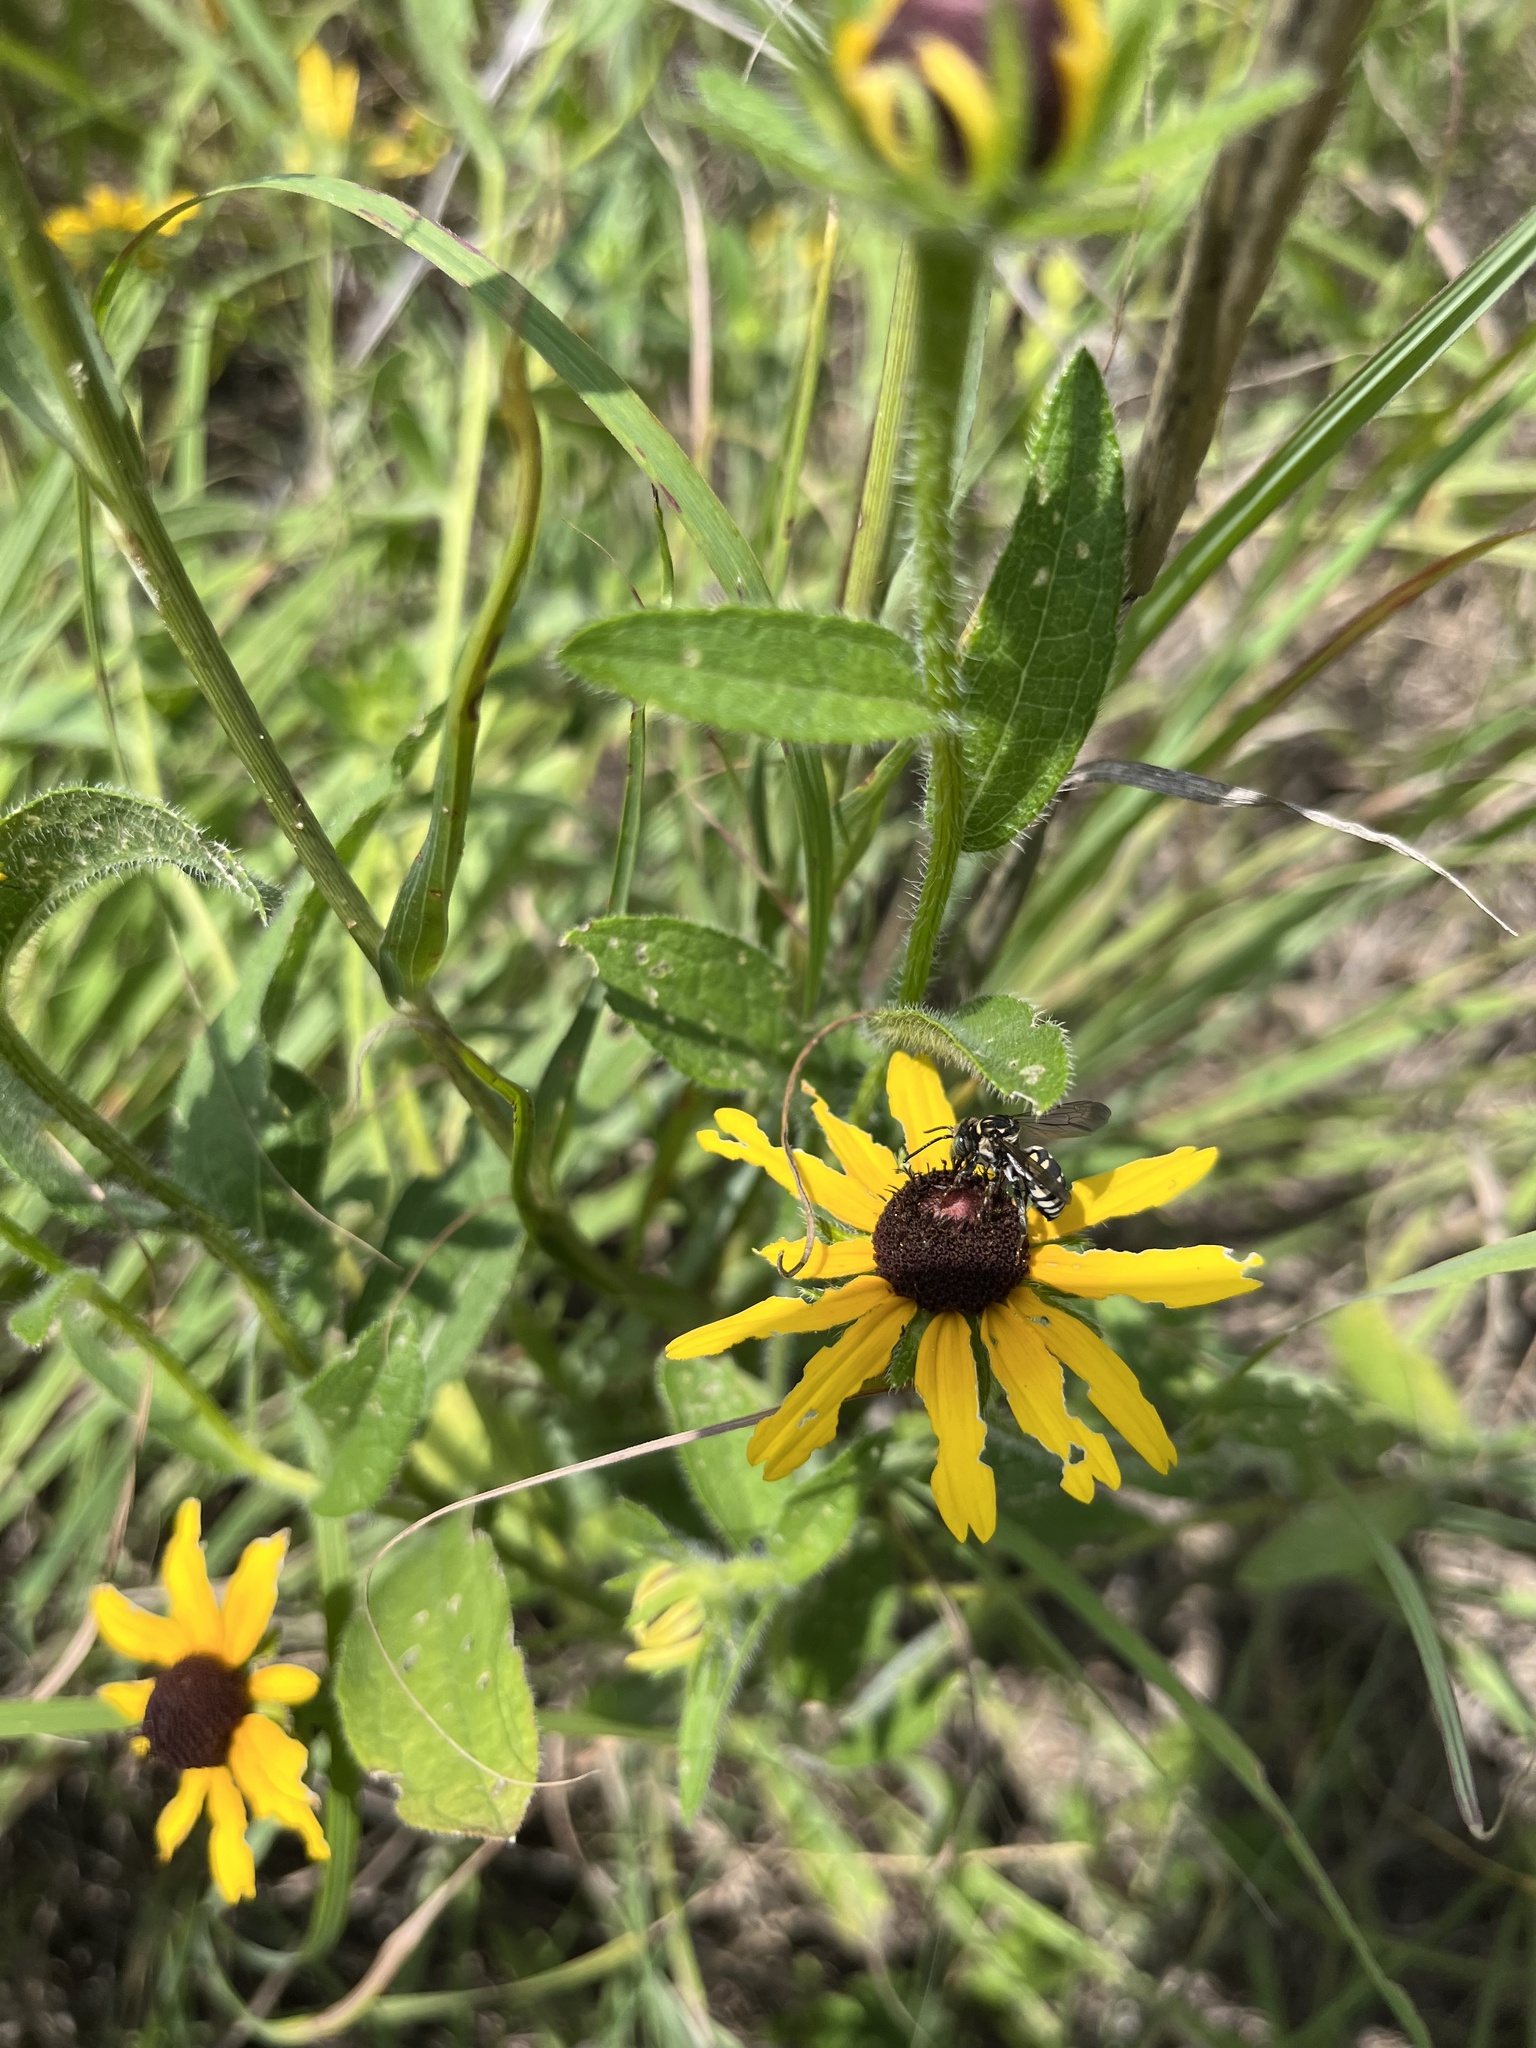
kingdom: Plantae
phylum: Tracheophyta
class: Magnoliopsida
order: Asterales
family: Asteraceae
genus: Rudbeckia
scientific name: Rudbeckia hirta
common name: Black-eyed-susan
